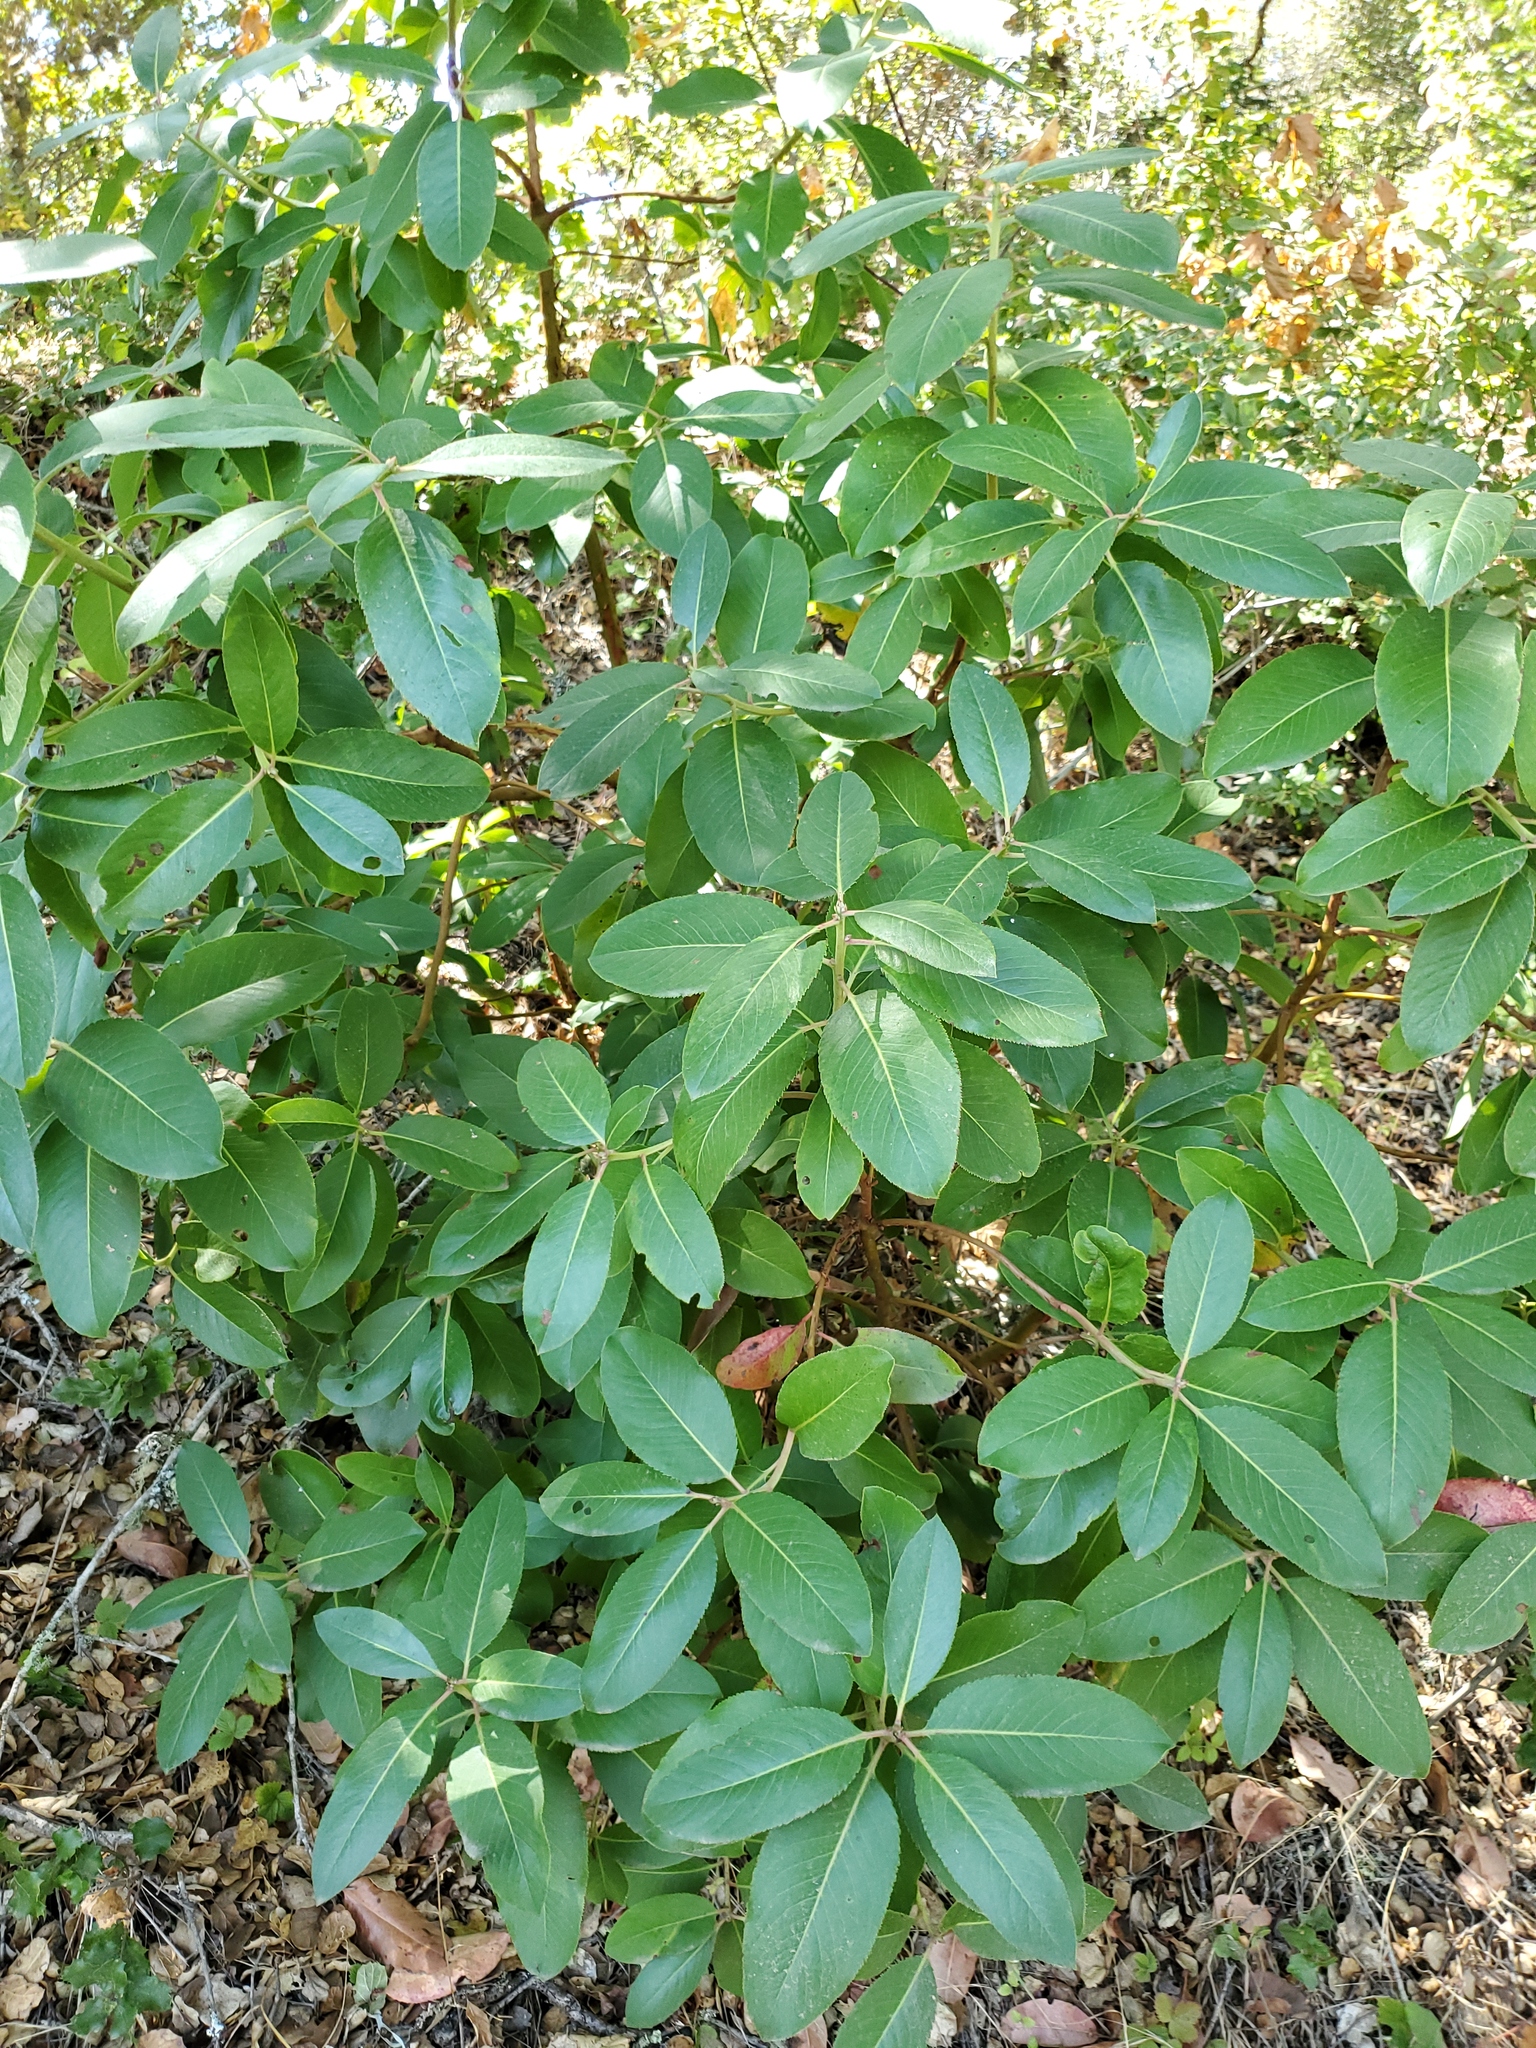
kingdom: Plantae
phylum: Tracheophyta
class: Magnoliopsida
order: Ericales
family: Ericaceae
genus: Arbutus
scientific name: Arbutus menziesii
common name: Pacific madrone
